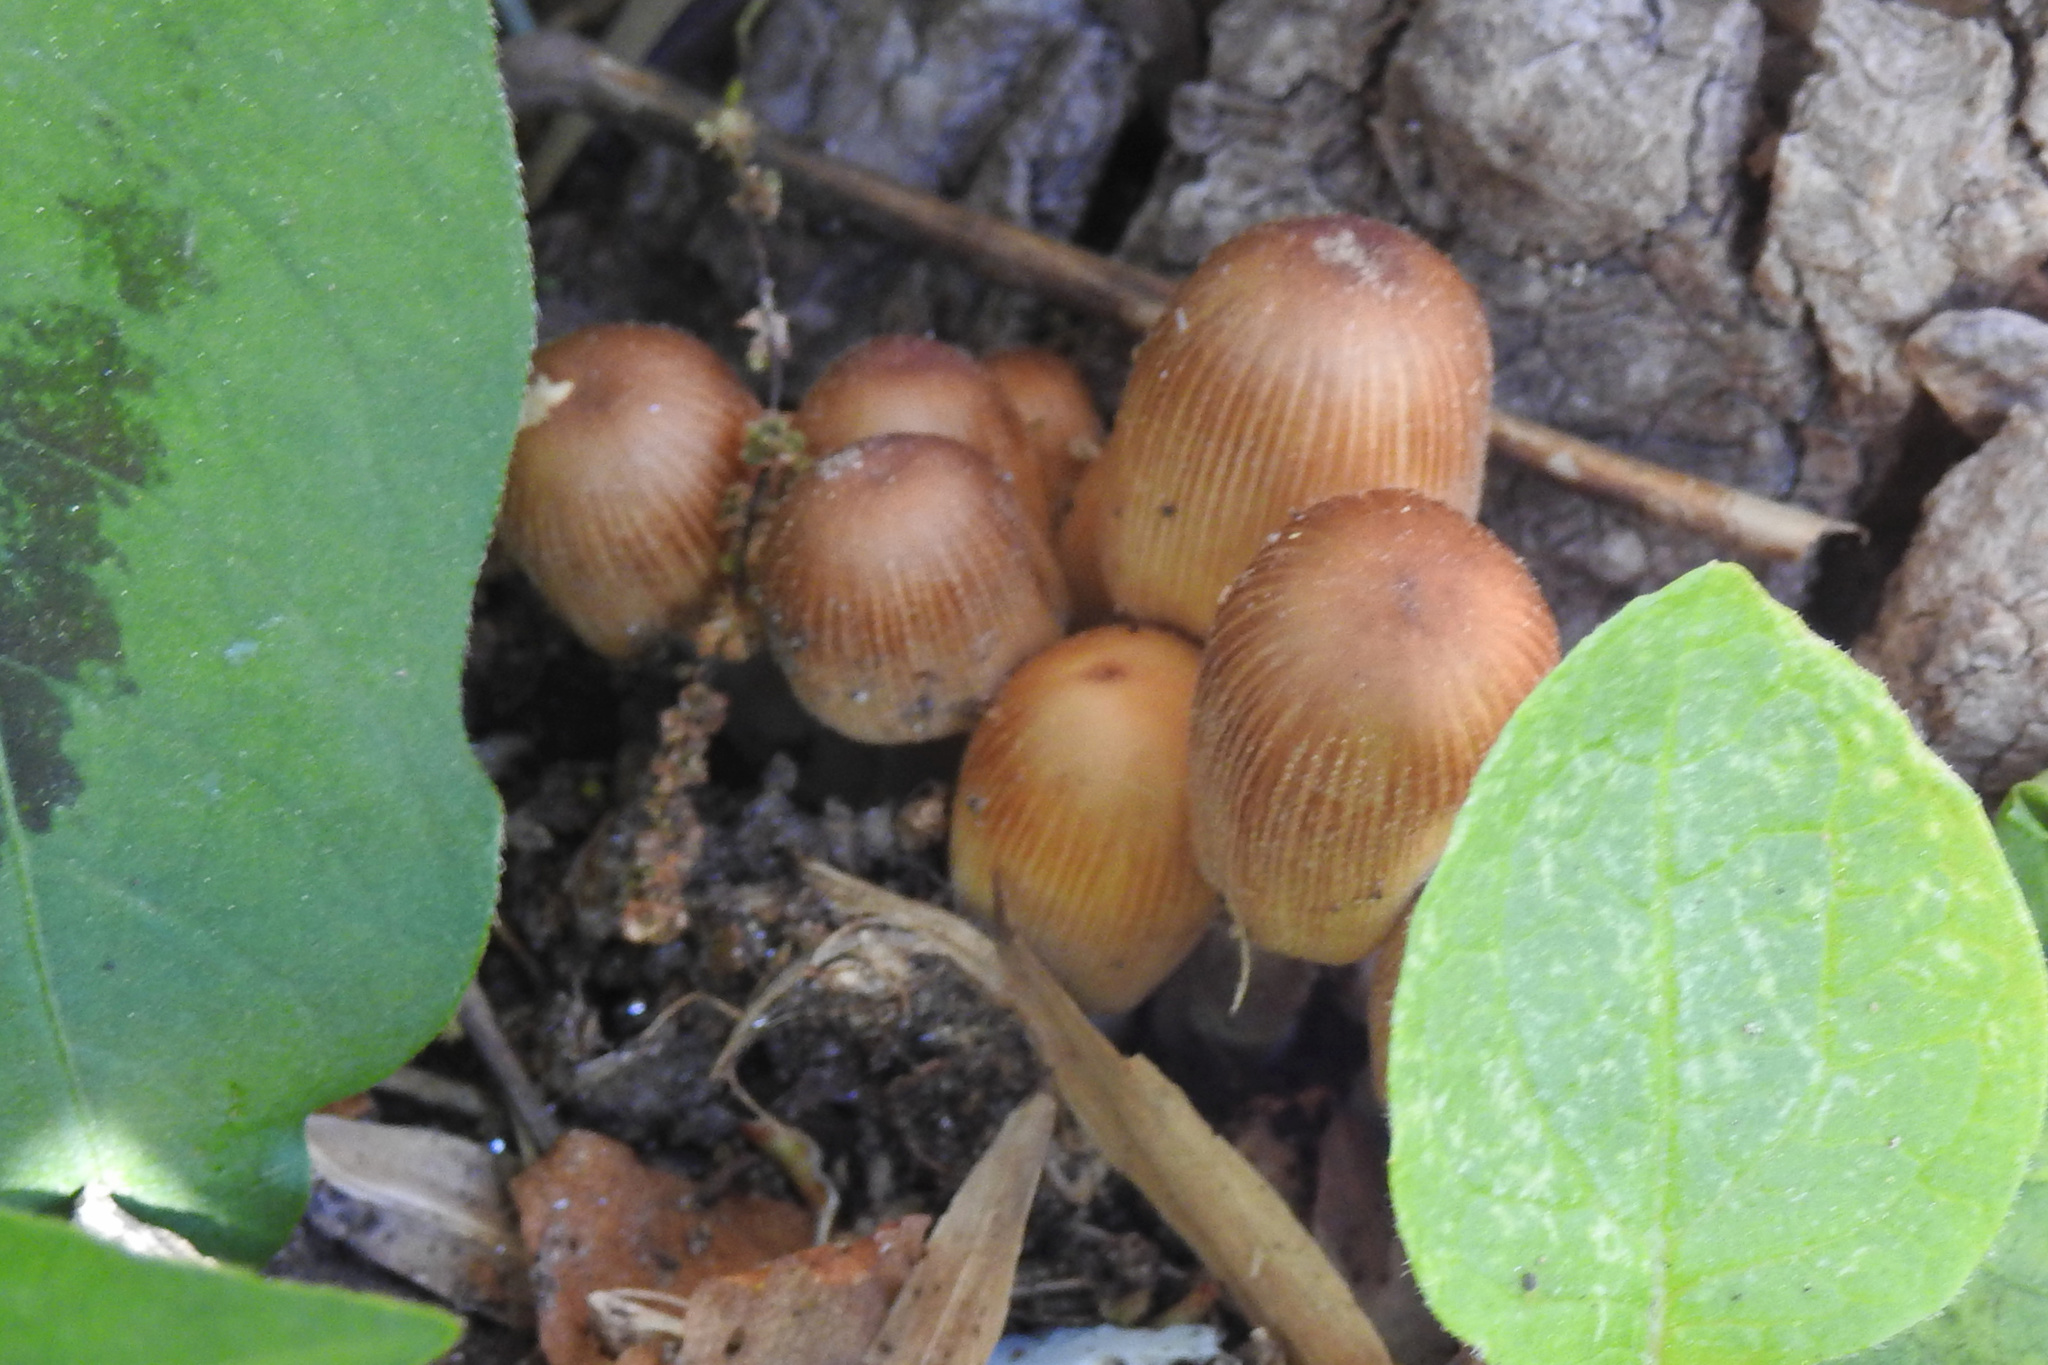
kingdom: Fungi
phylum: Basidiomycota
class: Agaricomycetes
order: Agaricales
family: Psathyrellaceae
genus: Coprinellus
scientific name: Coprinellus micaceus
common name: Glistening ink-cap
